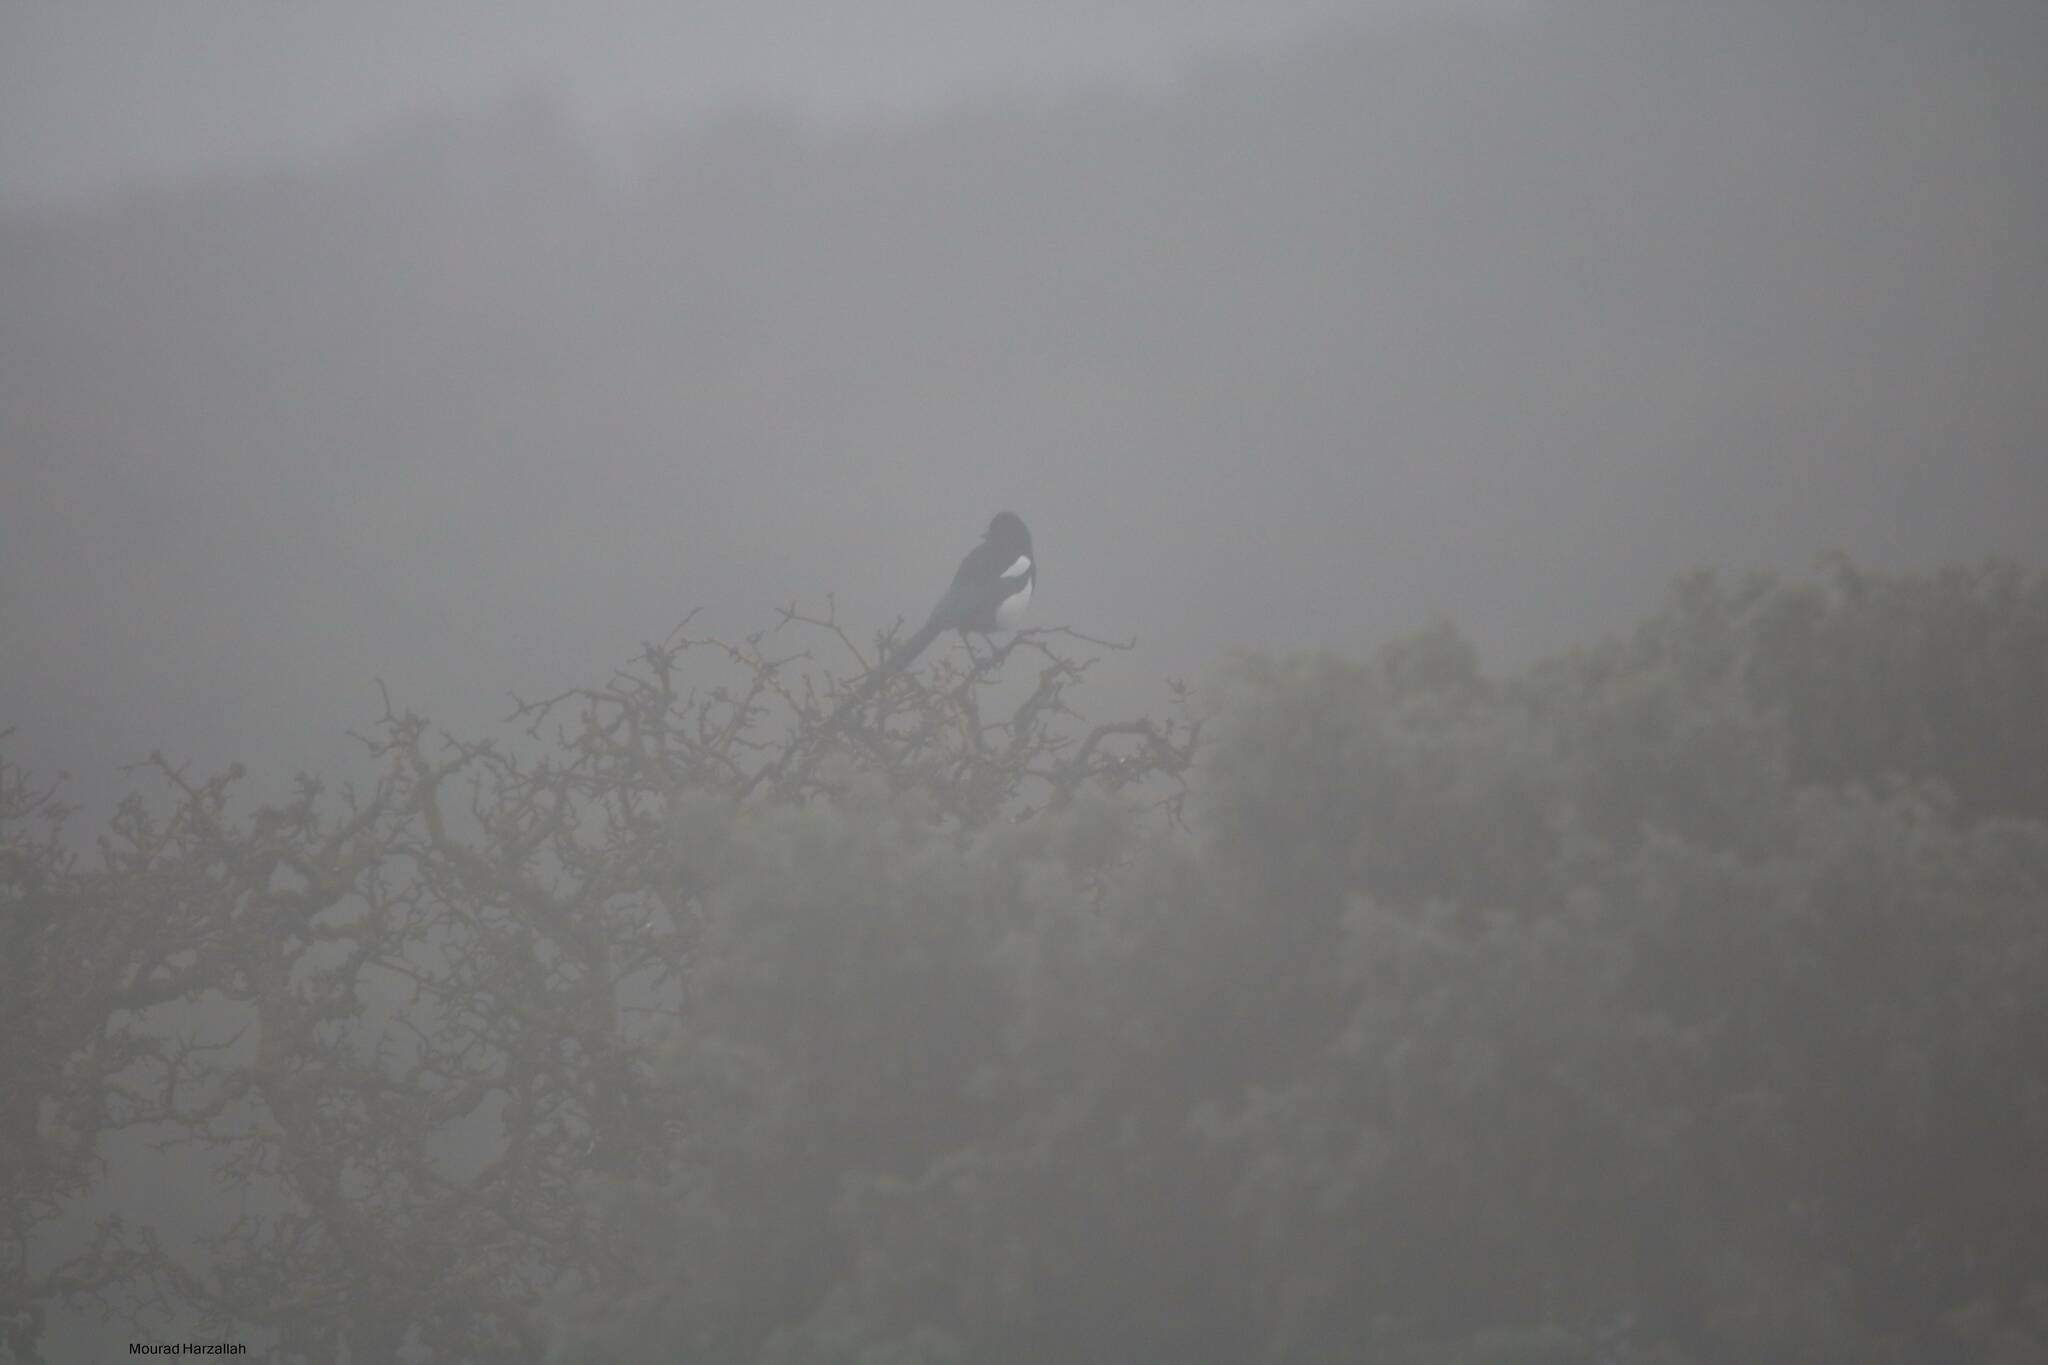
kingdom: Animalia
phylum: Chordata
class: Aves
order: Passeriformes
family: Corvidae
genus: Pica
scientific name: Pica mauritanica
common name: Maghreb magpie
